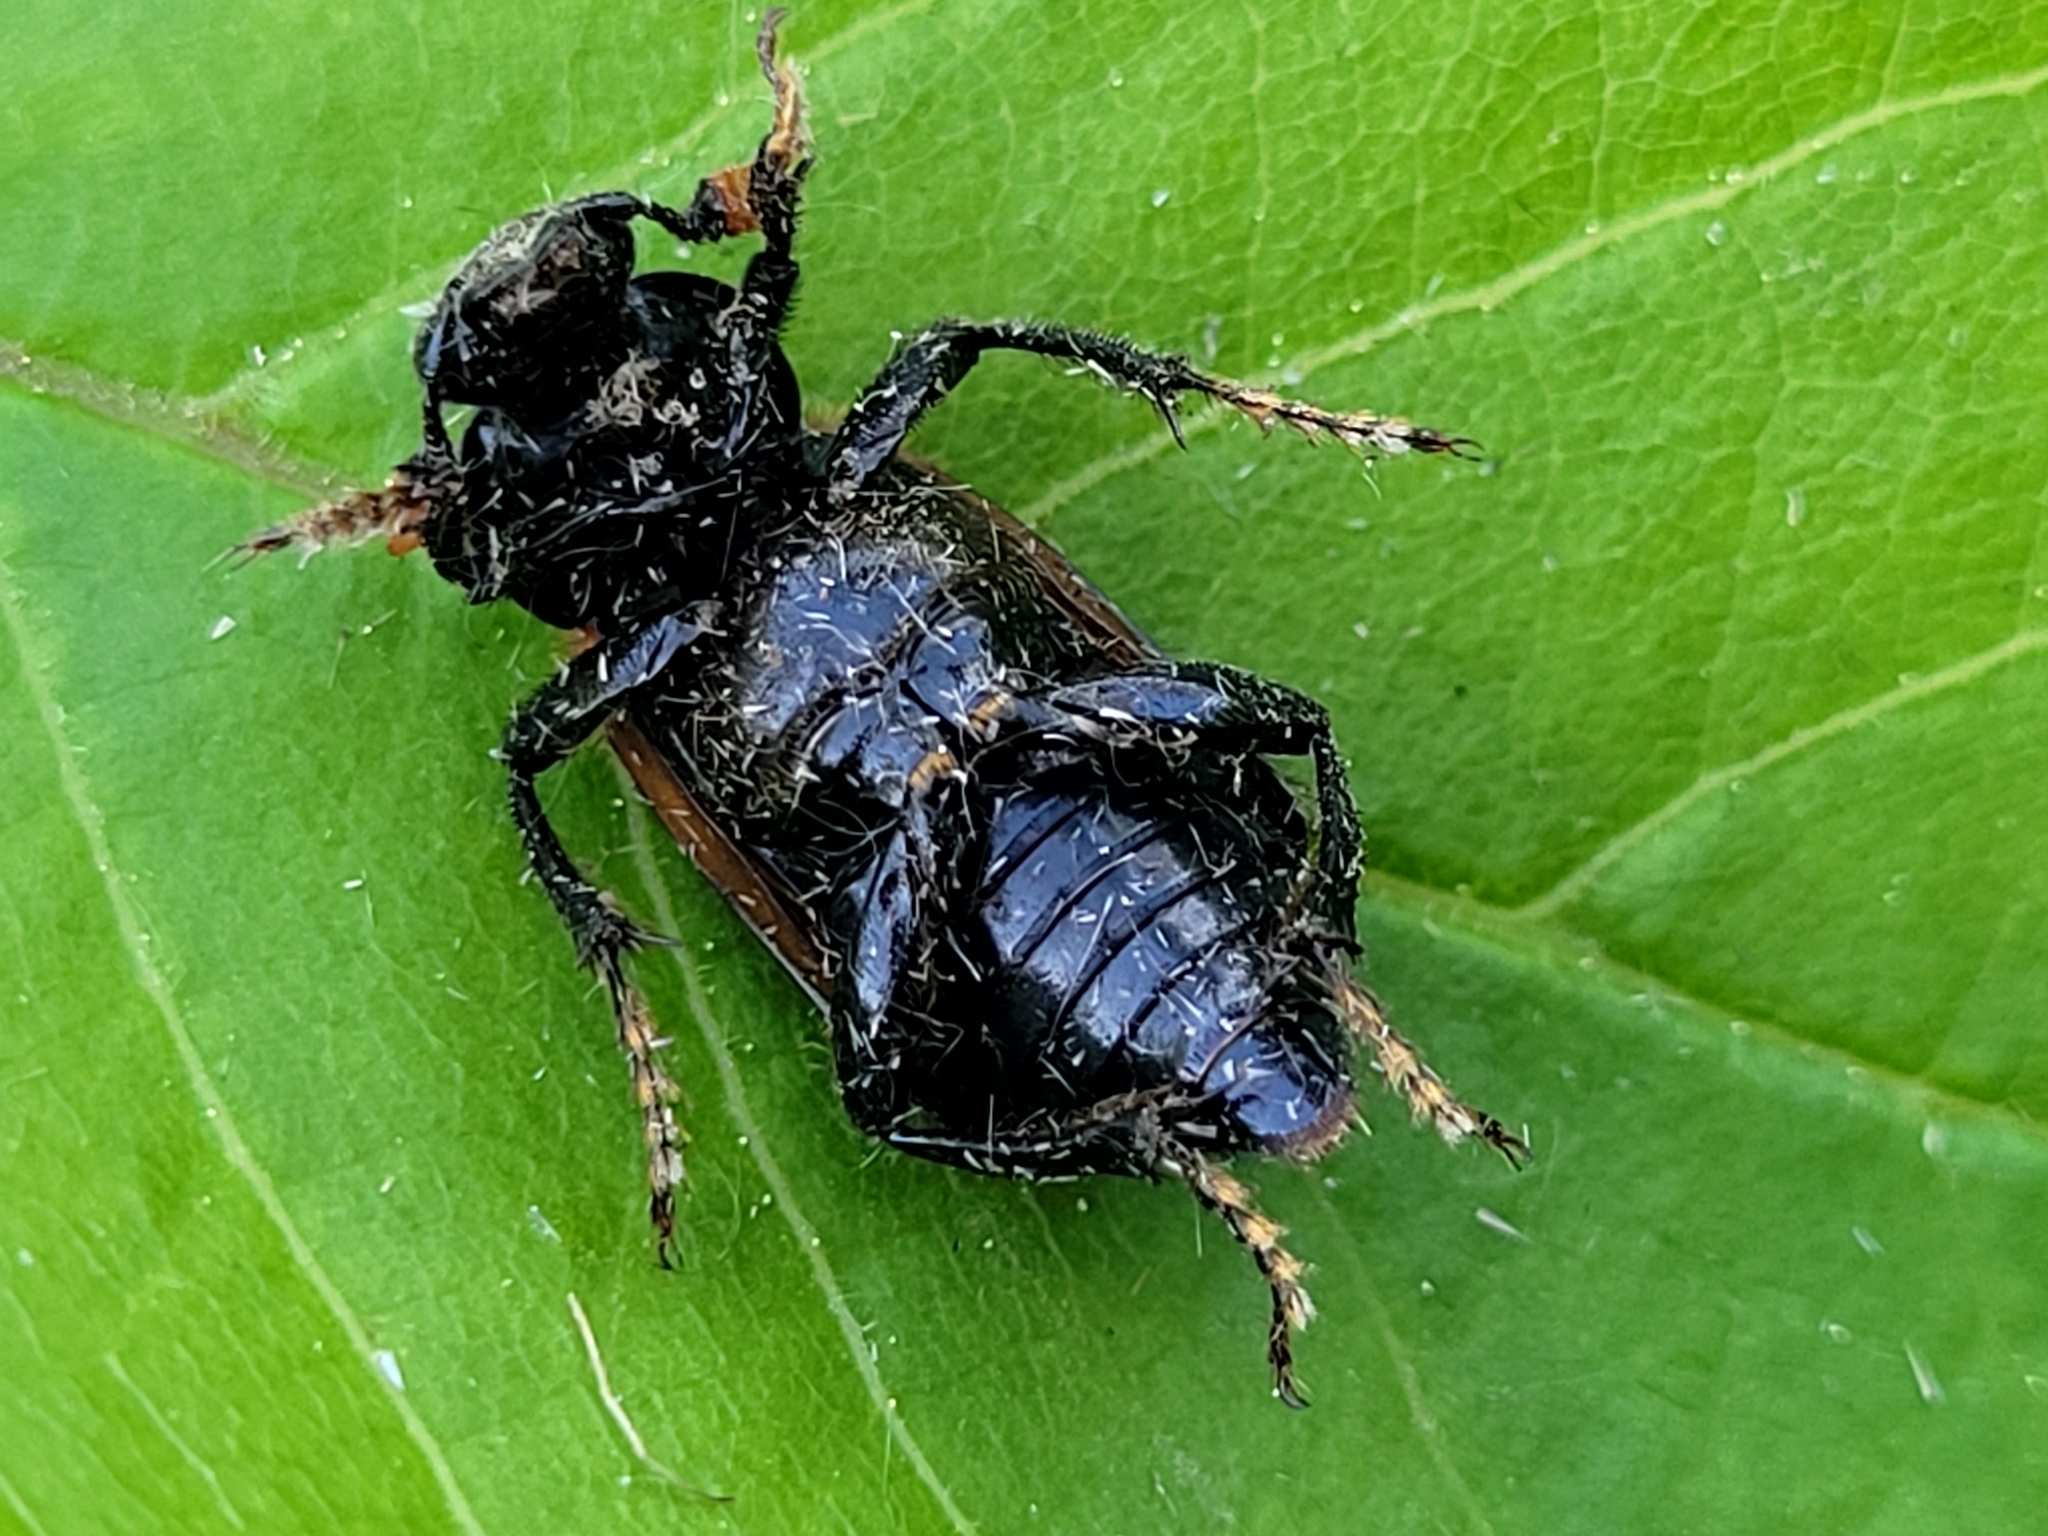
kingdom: Animalia
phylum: Arthropoda
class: Insecta
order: Coleoptera
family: Staphylinidae
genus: Nicrophorus
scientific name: Nicrophorus sayi
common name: Say's burying beetle
